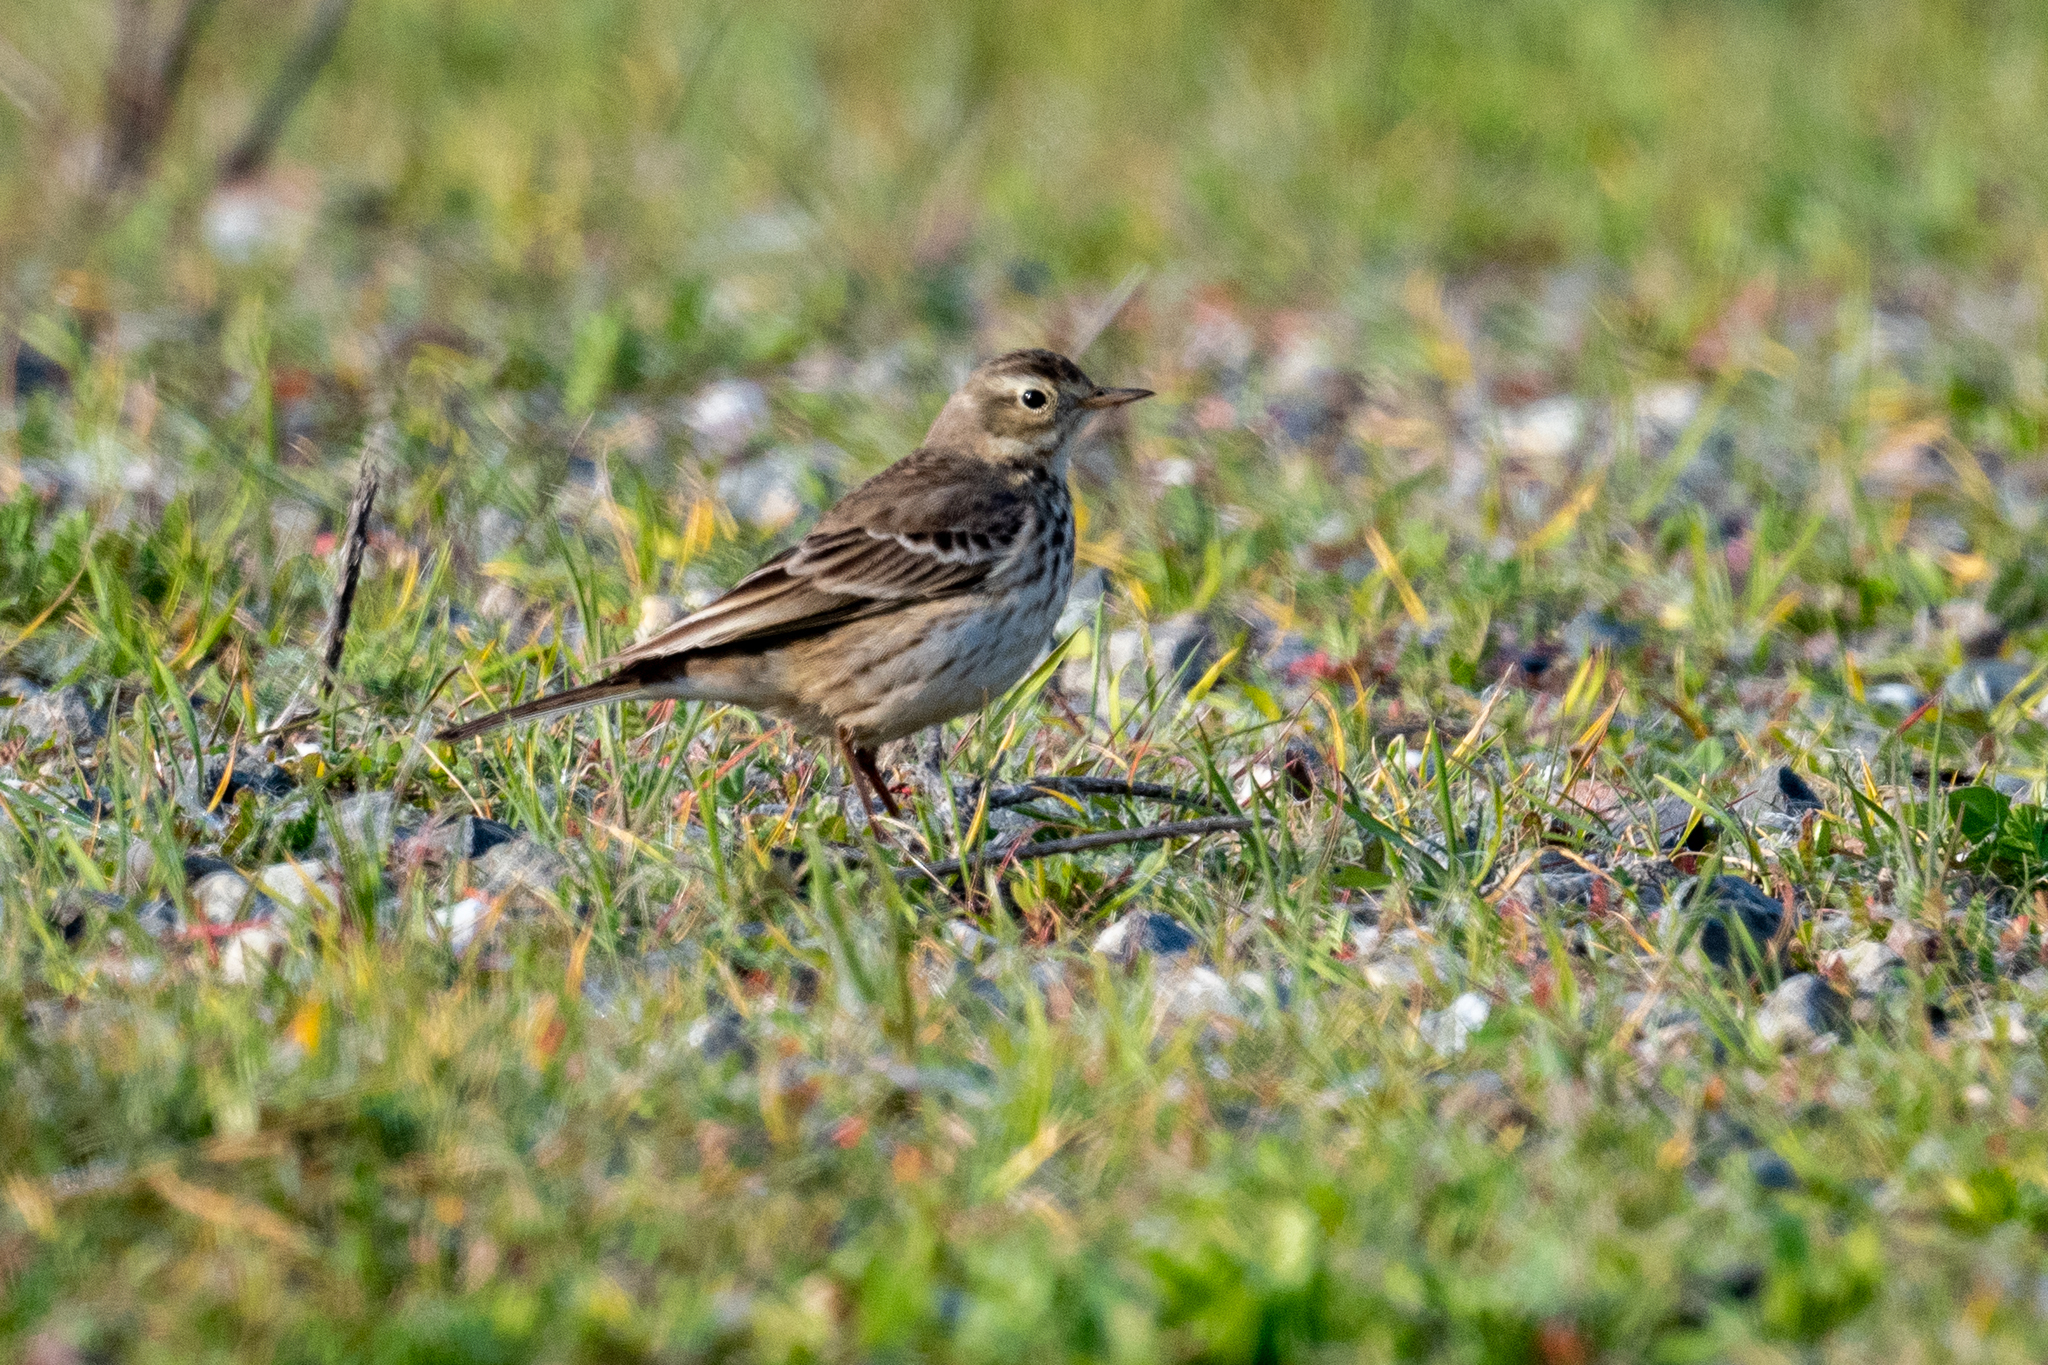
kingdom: Animalia
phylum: Chordata
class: Aves
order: Passeriformes
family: Motacillidae
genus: Anthus
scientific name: Anthus rubescens
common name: Buff-bellied pipit
